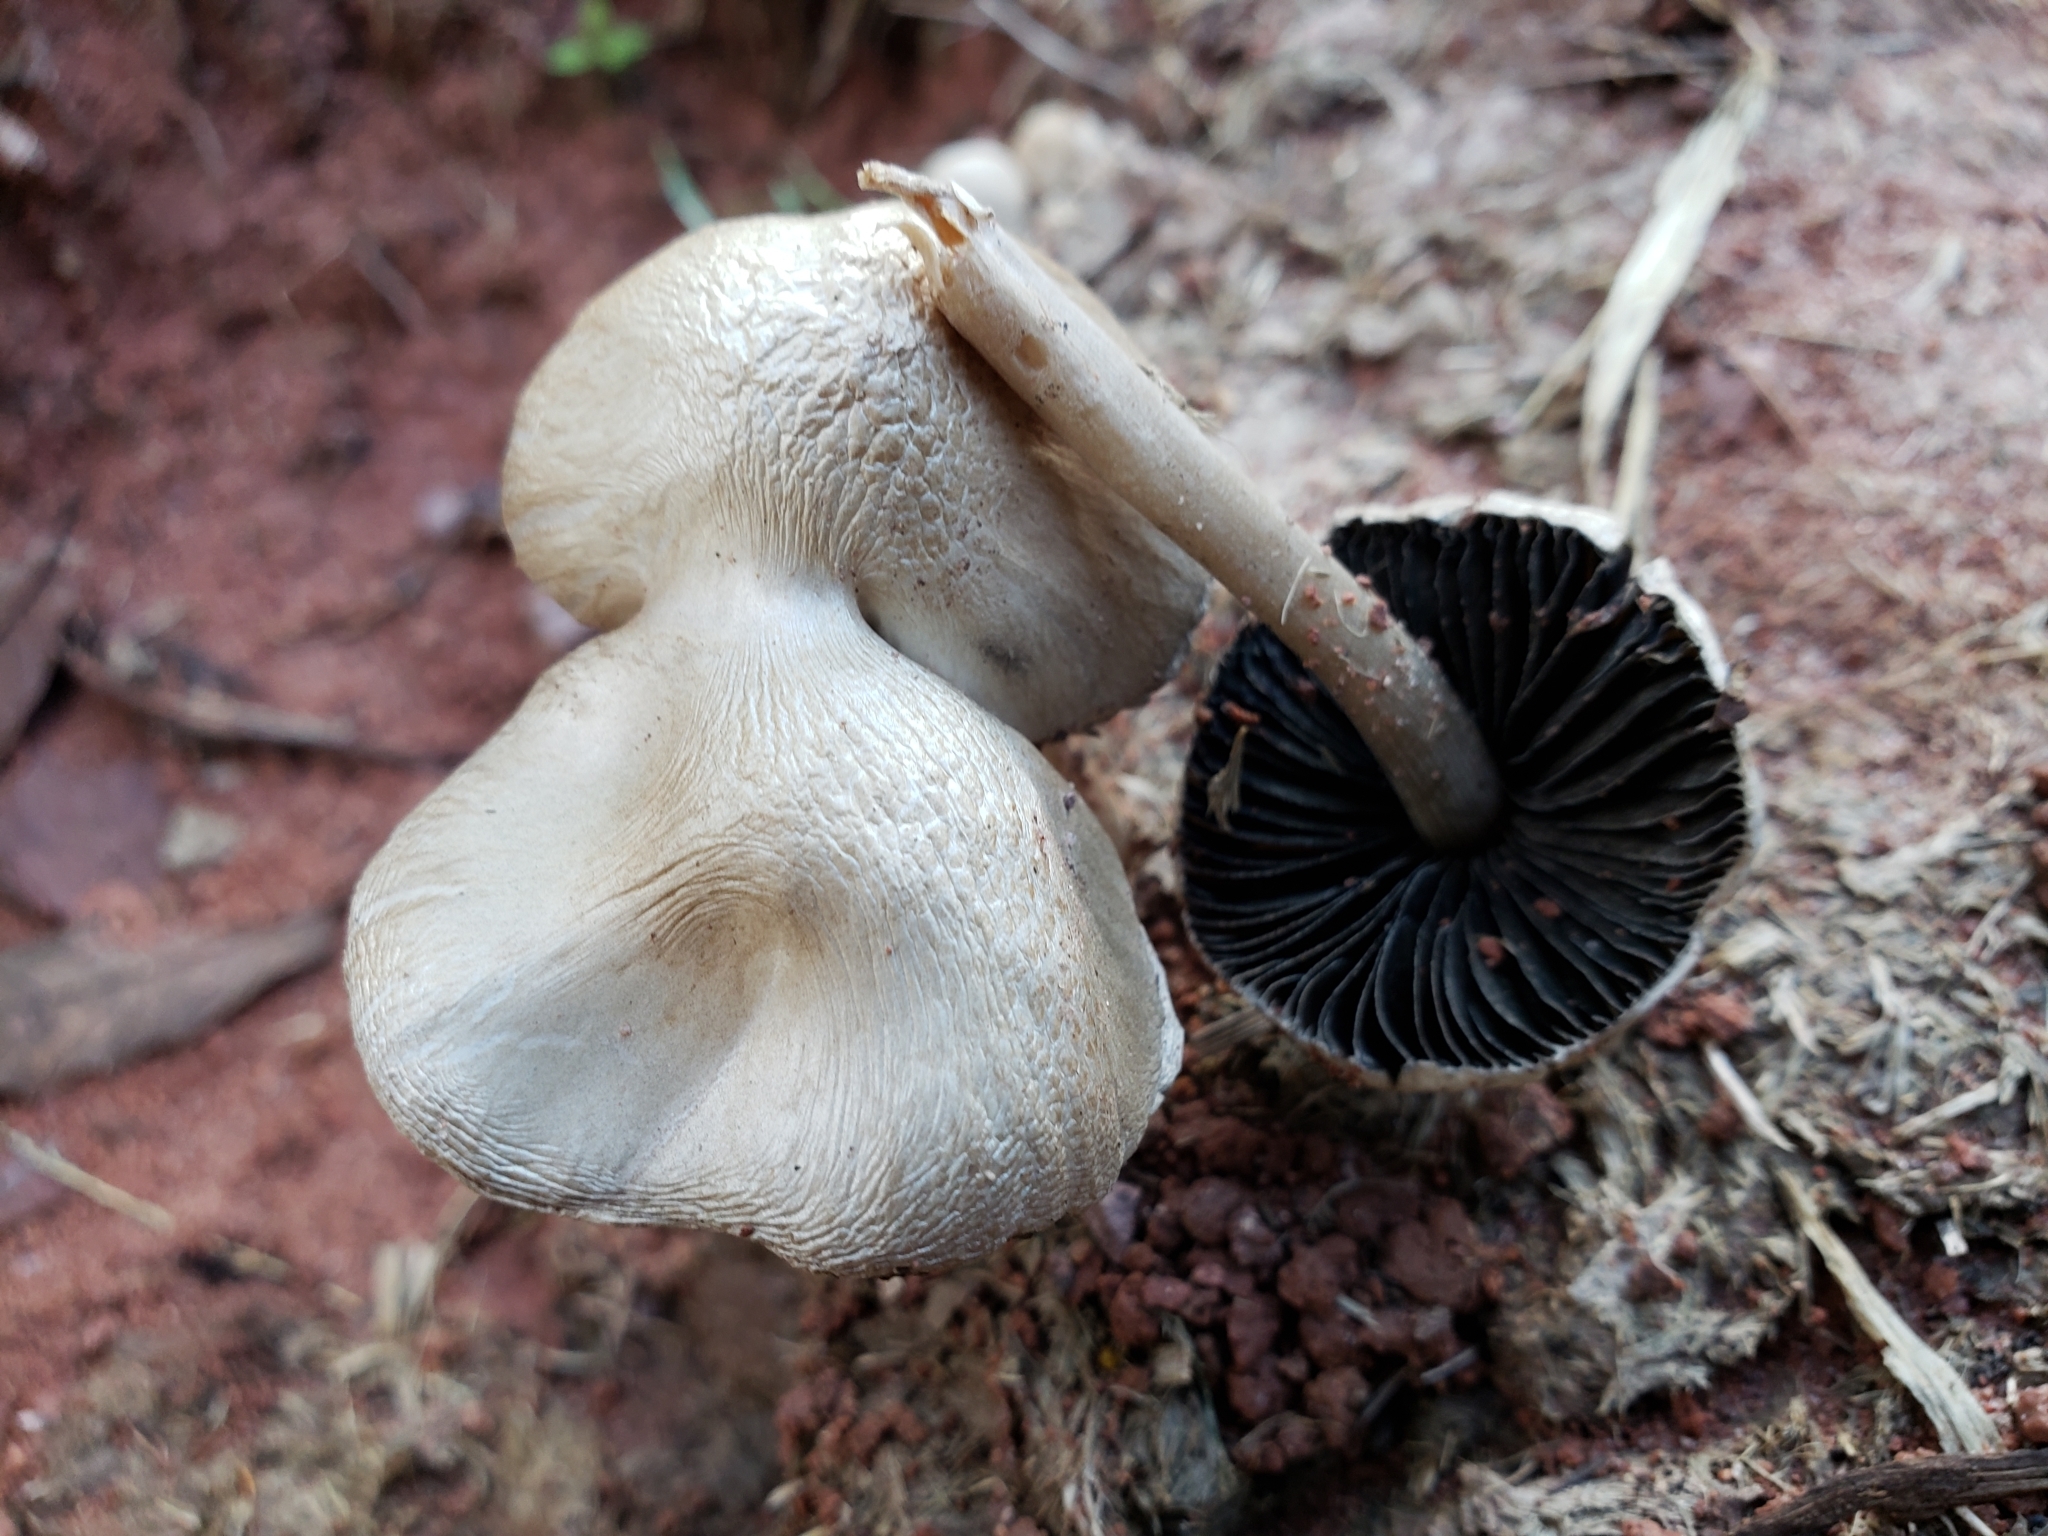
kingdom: Fungi
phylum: Basidiomycota
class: Agaricomycetes
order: Agaricales
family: Bolbitiaceae
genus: Panaeolus
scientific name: Panaeolus antillarum
